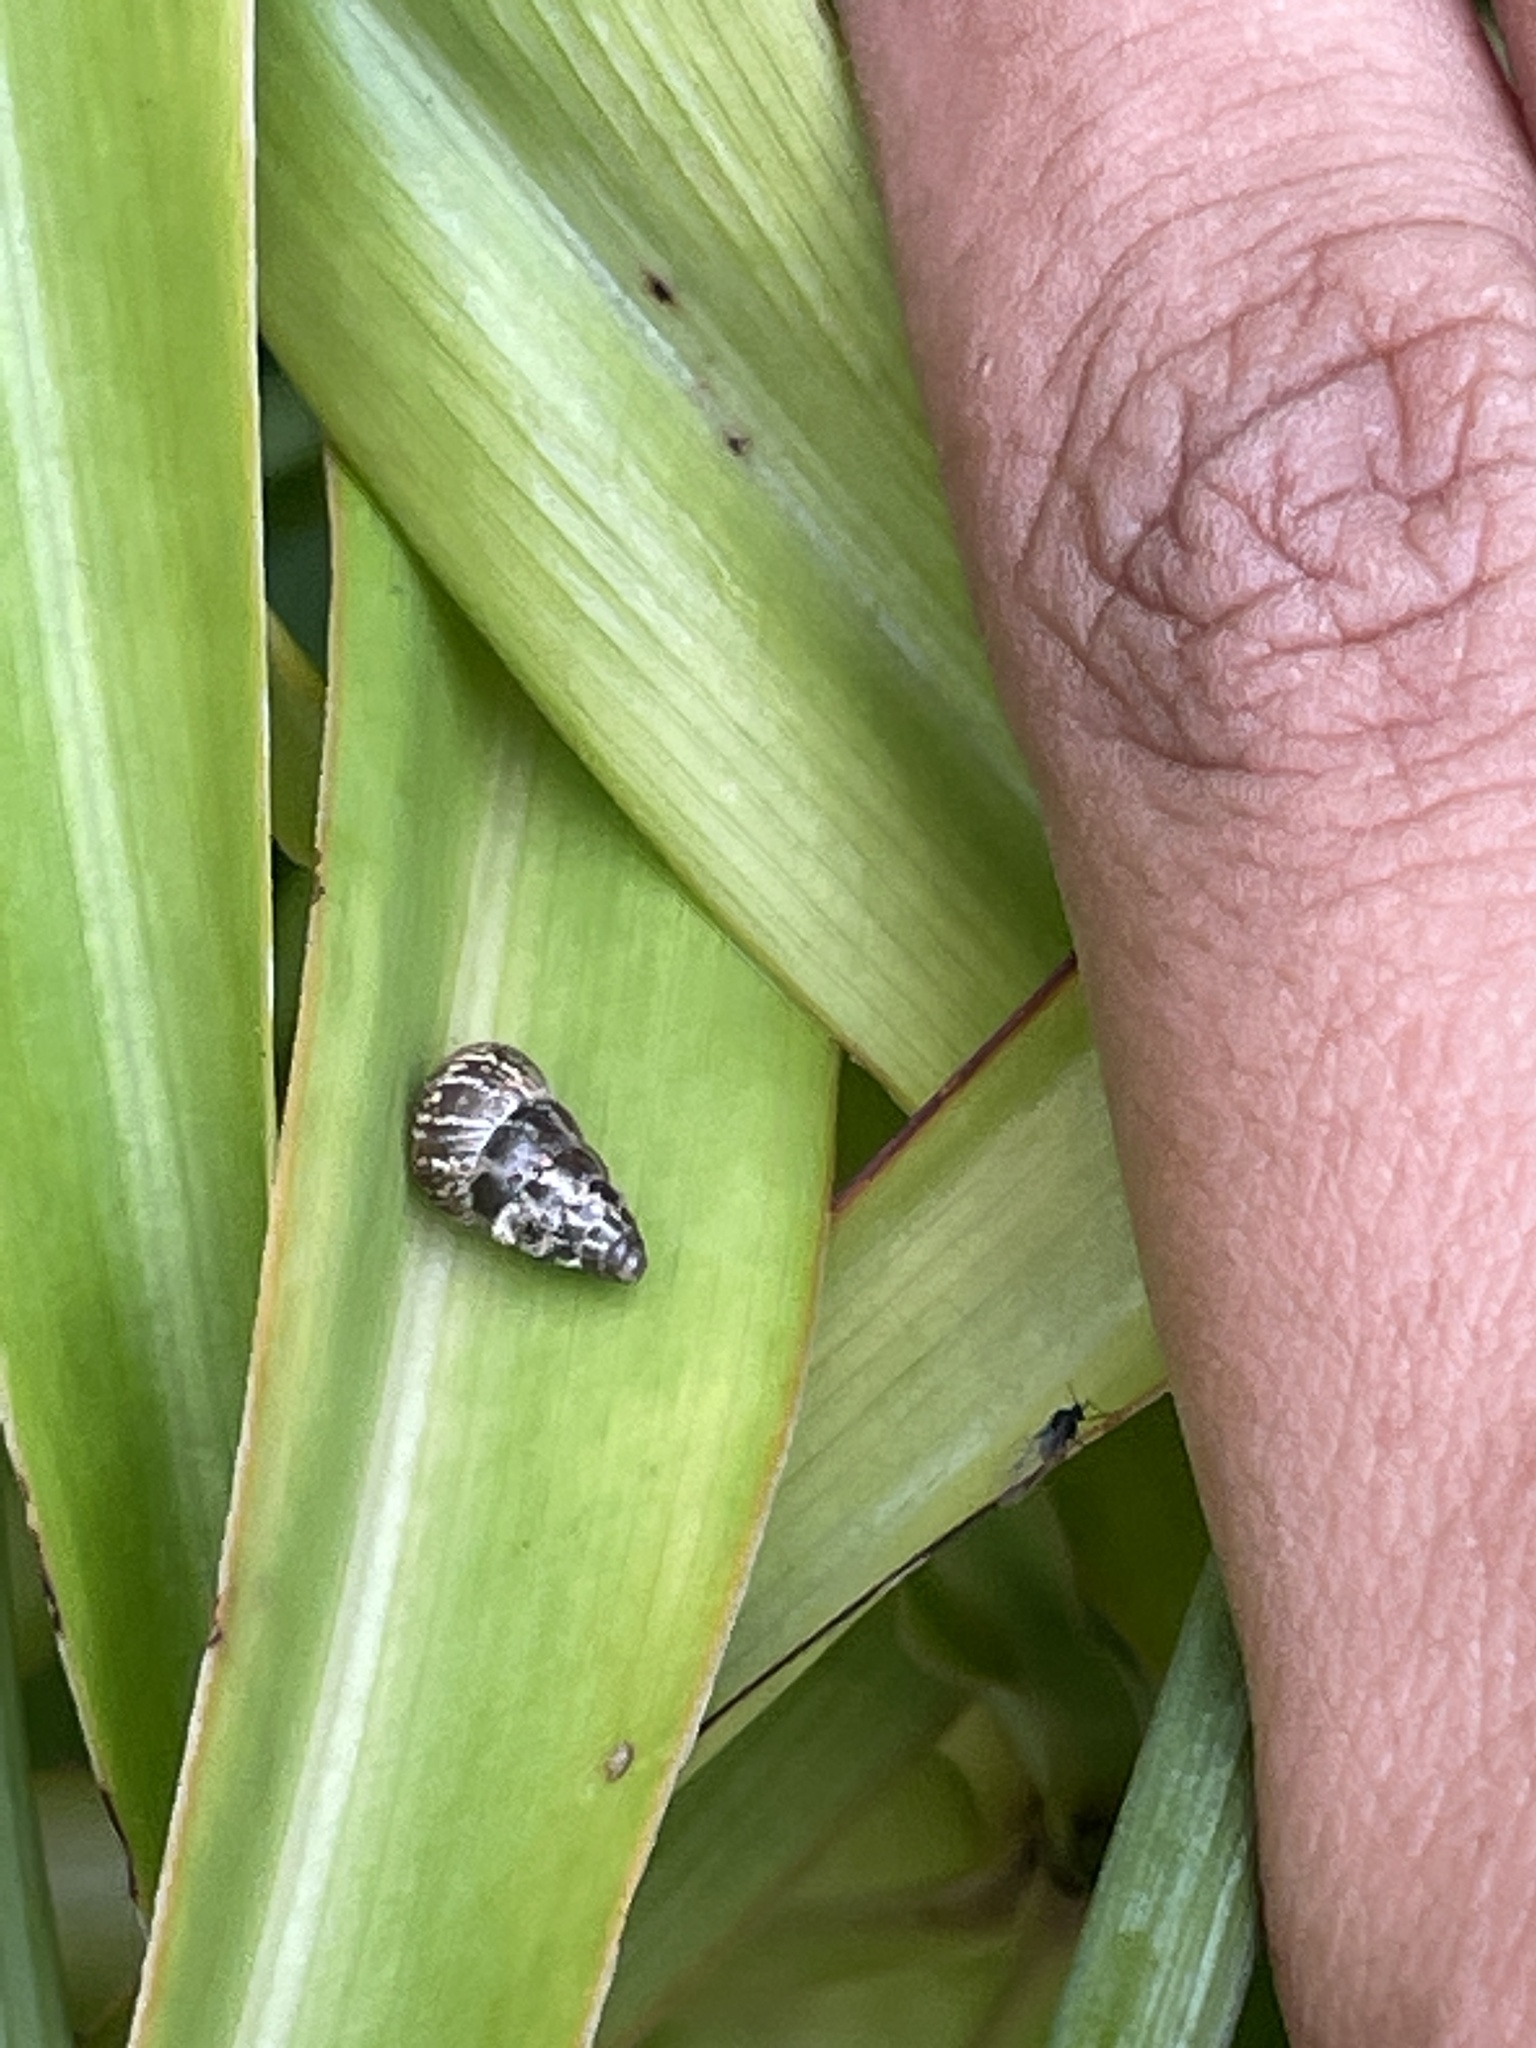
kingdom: Animalia
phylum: Mollusca
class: Gastropoda
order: Stylommatophora
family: Geomitridae
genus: Cochlicella
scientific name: Cochlicella barbara
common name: Potbellied helicellid
